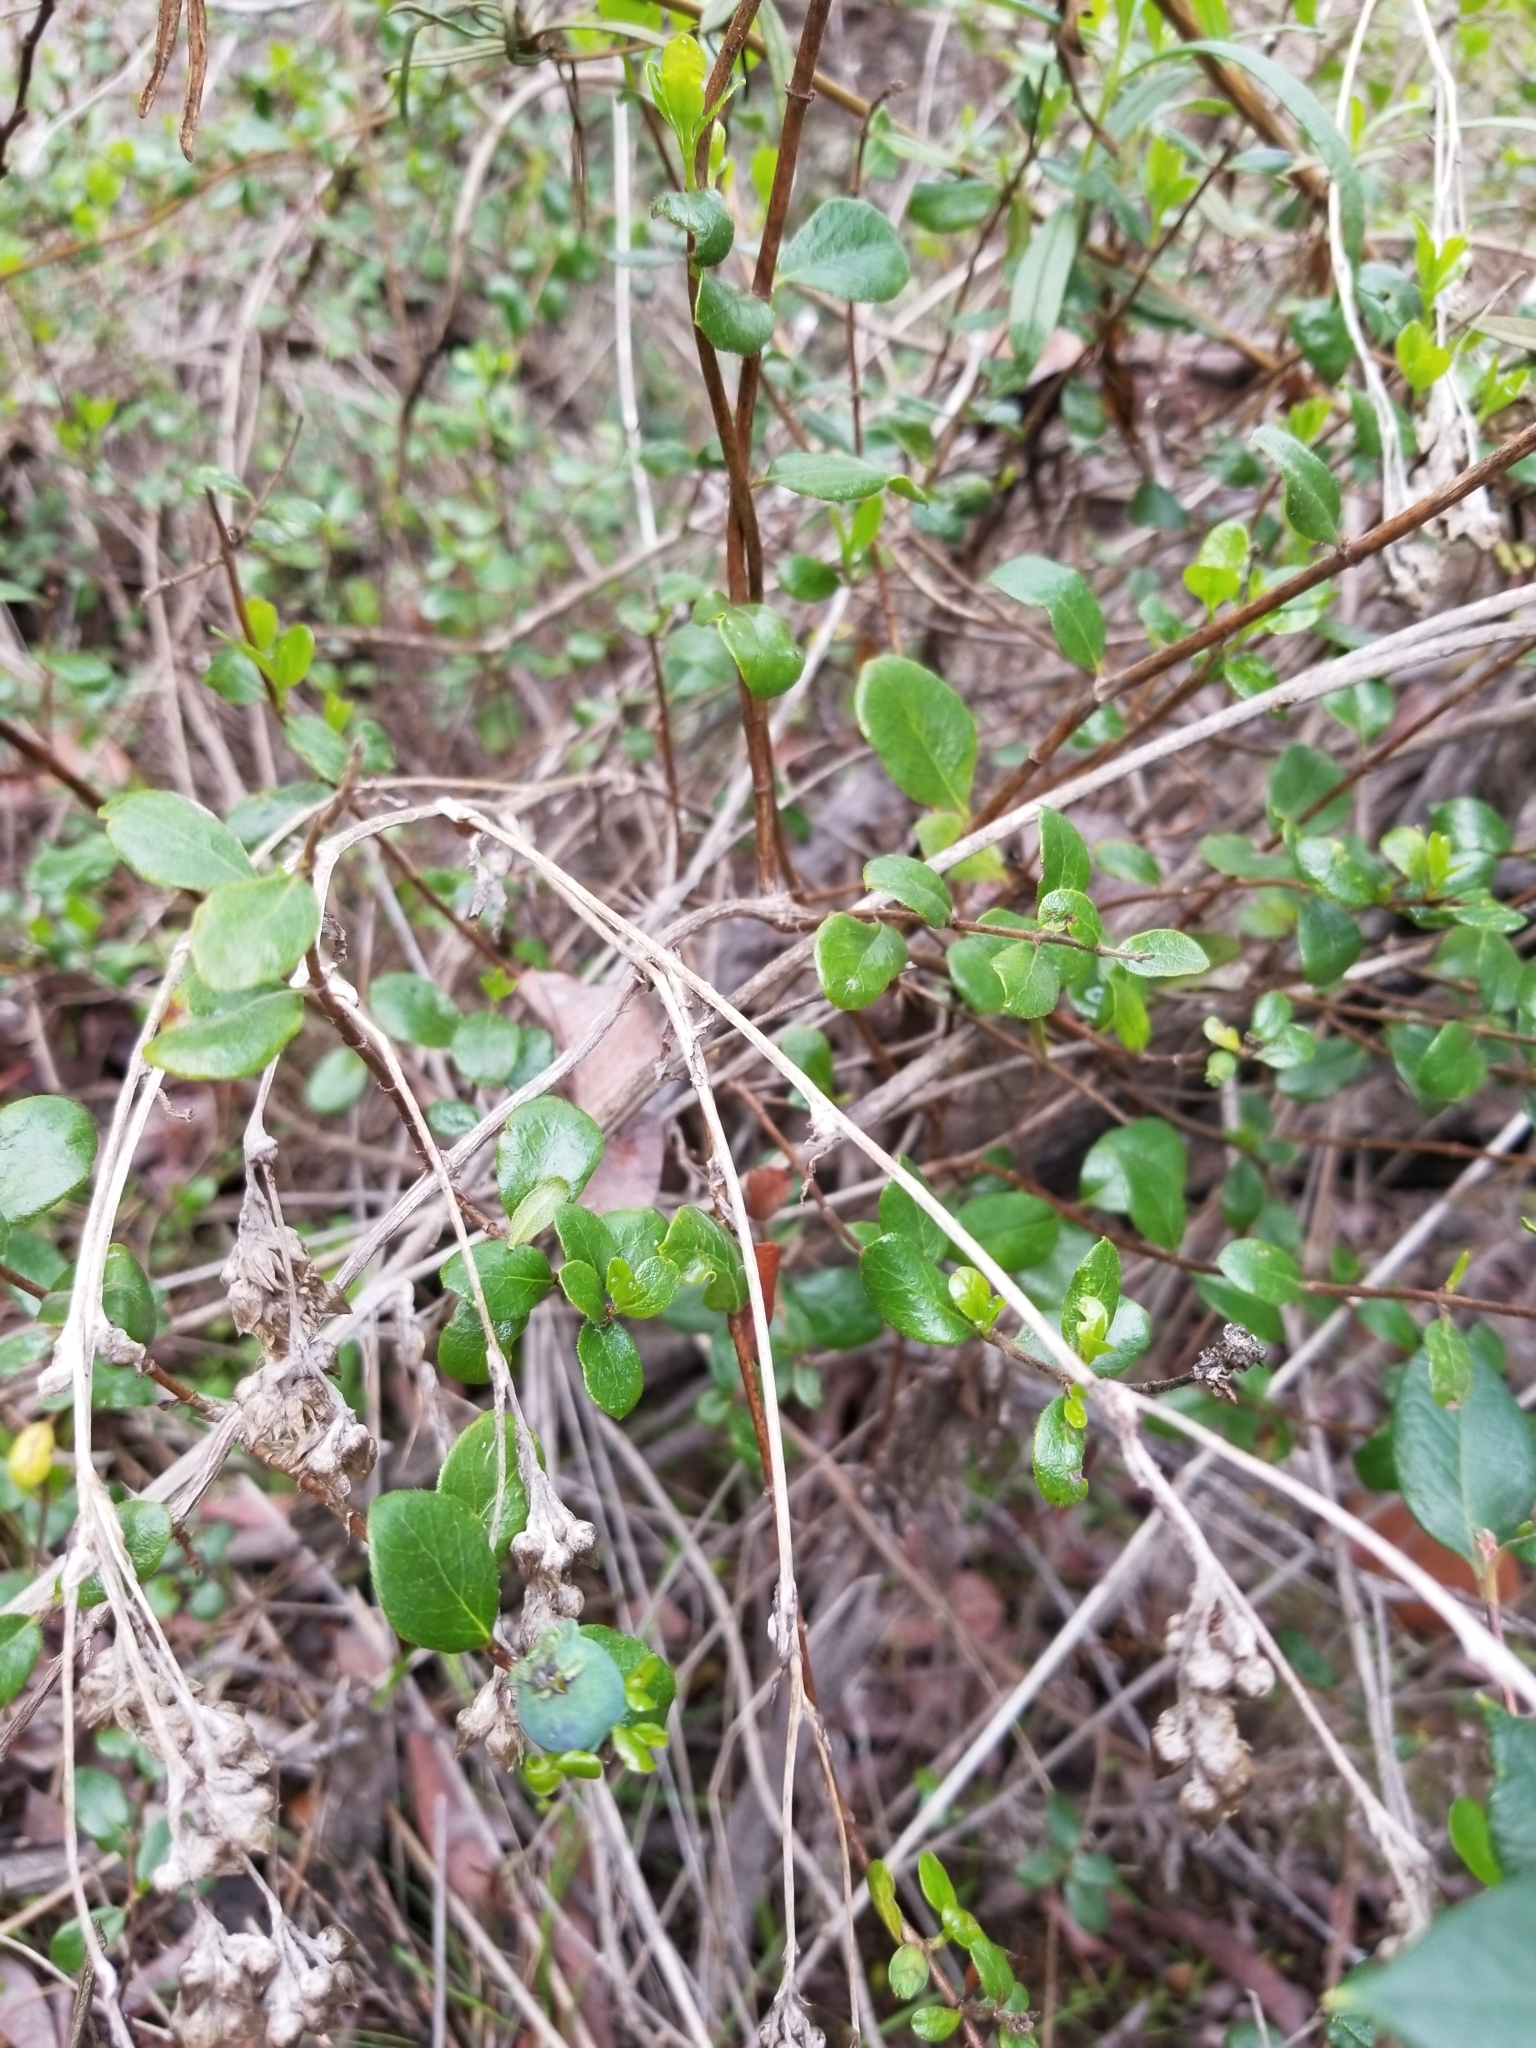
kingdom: Plantae
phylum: Tracheophyta
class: Magnoliopsida
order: Dipsacales
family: Caprifoliaceae
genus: Lonicera
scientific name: Lonicera subspicata
